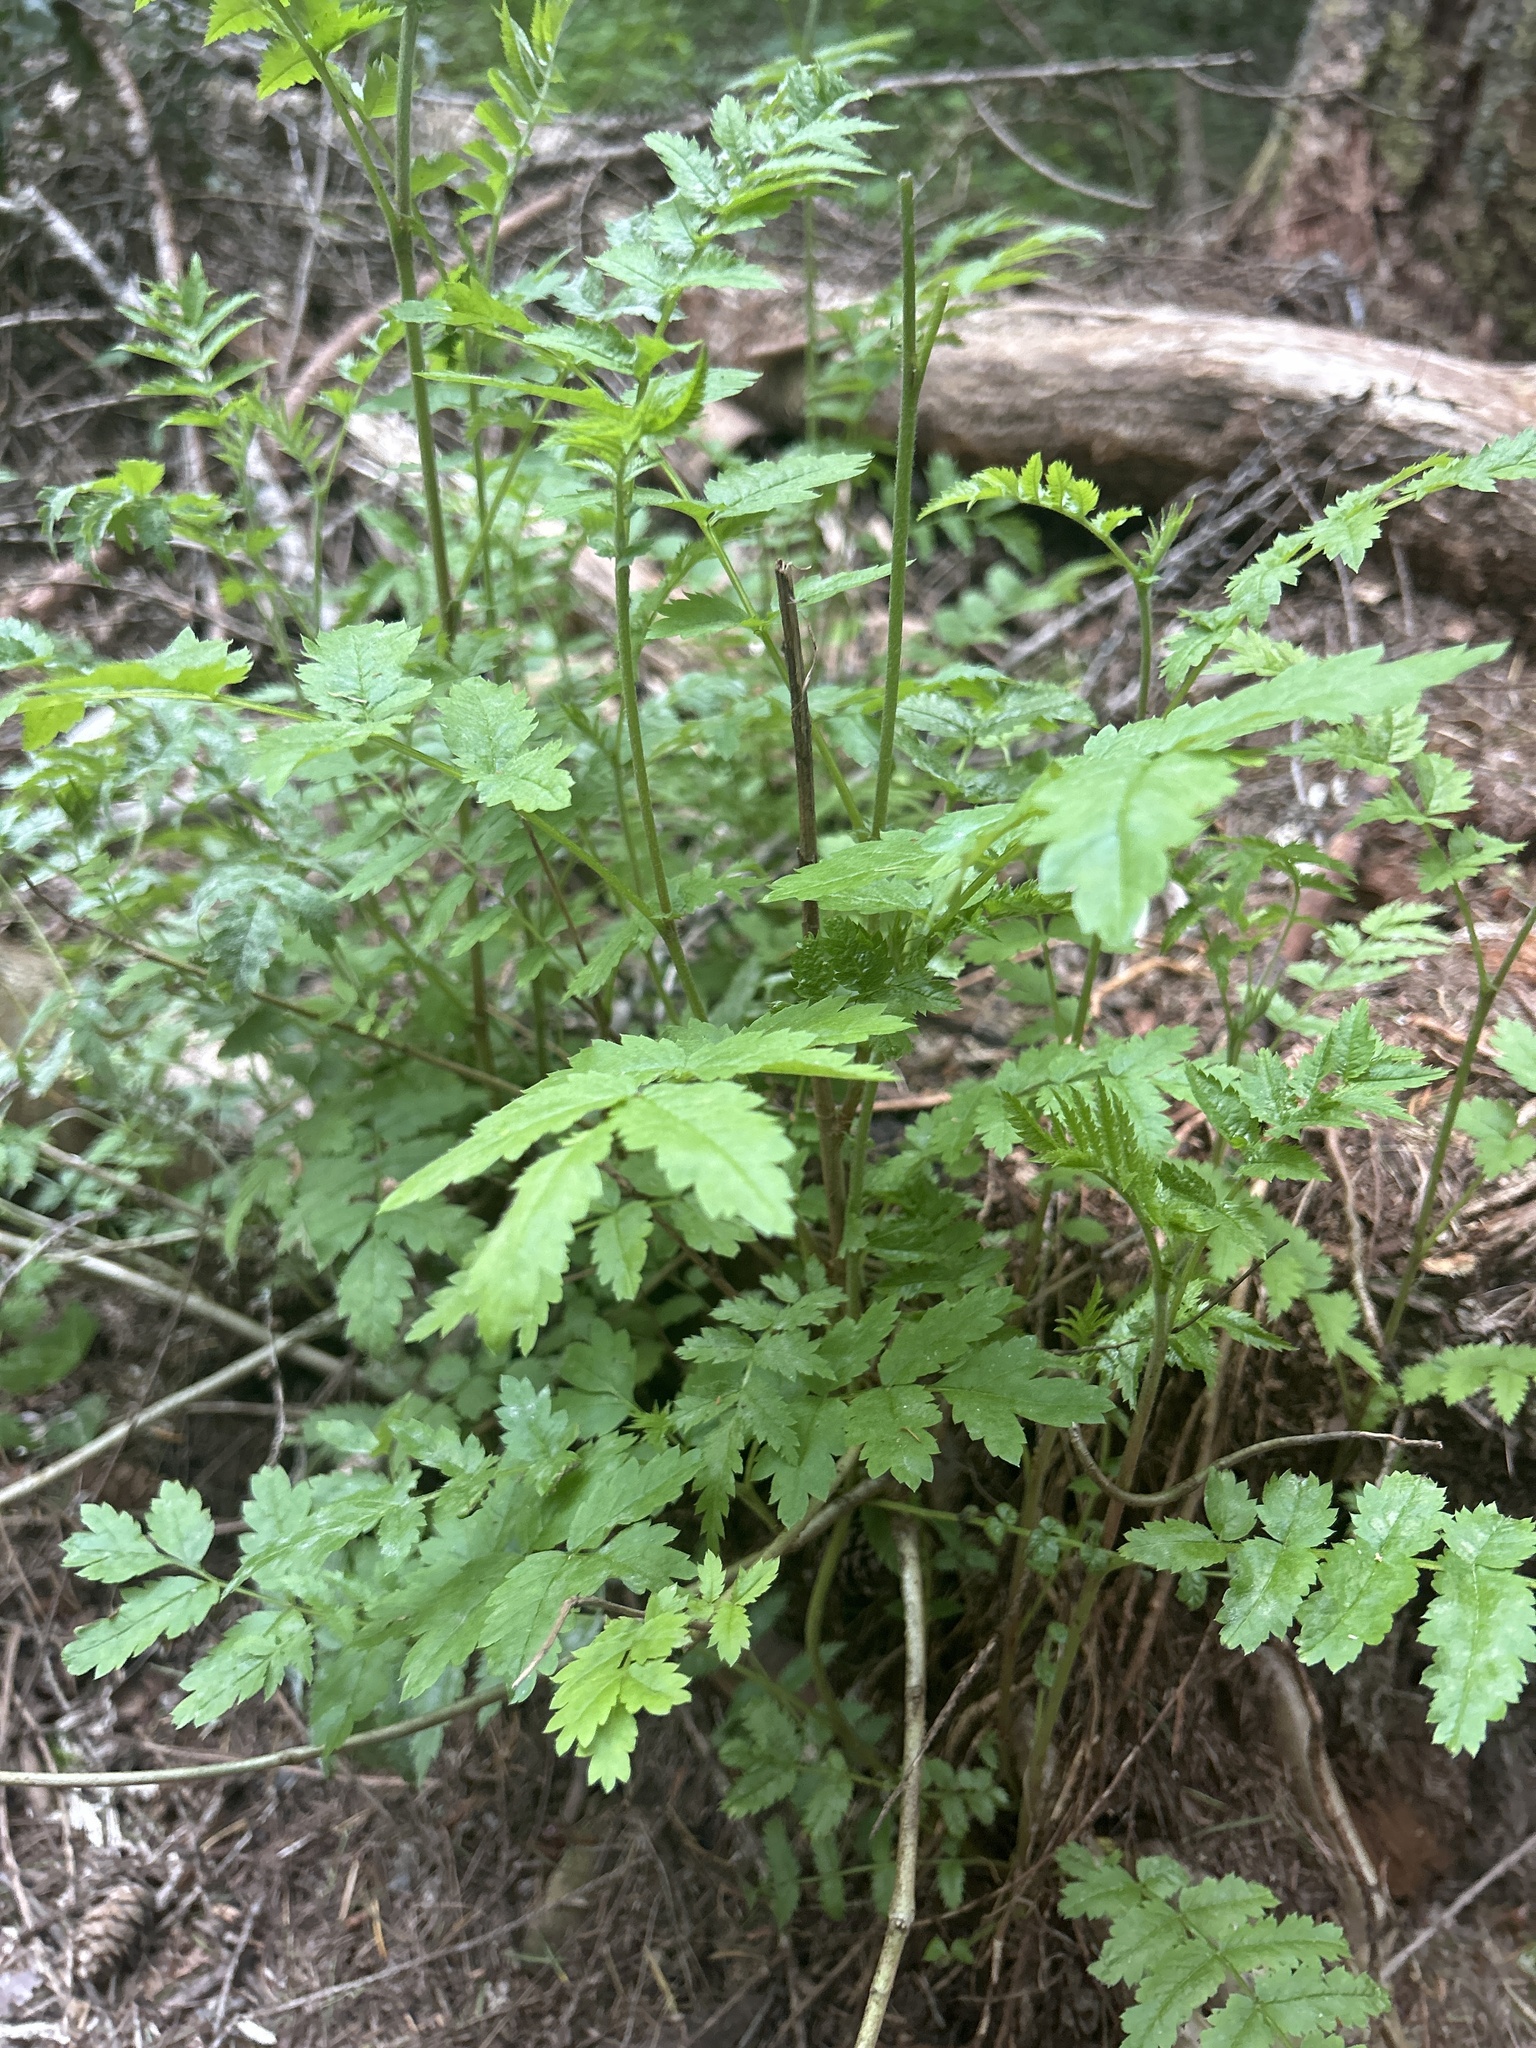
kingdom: Plantae
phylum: Tracheophyta
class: Magnoliopsida
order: Rosales
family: Rosaceae
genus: Sorbus
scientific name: Sorbus aucuparia
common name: Rowan
